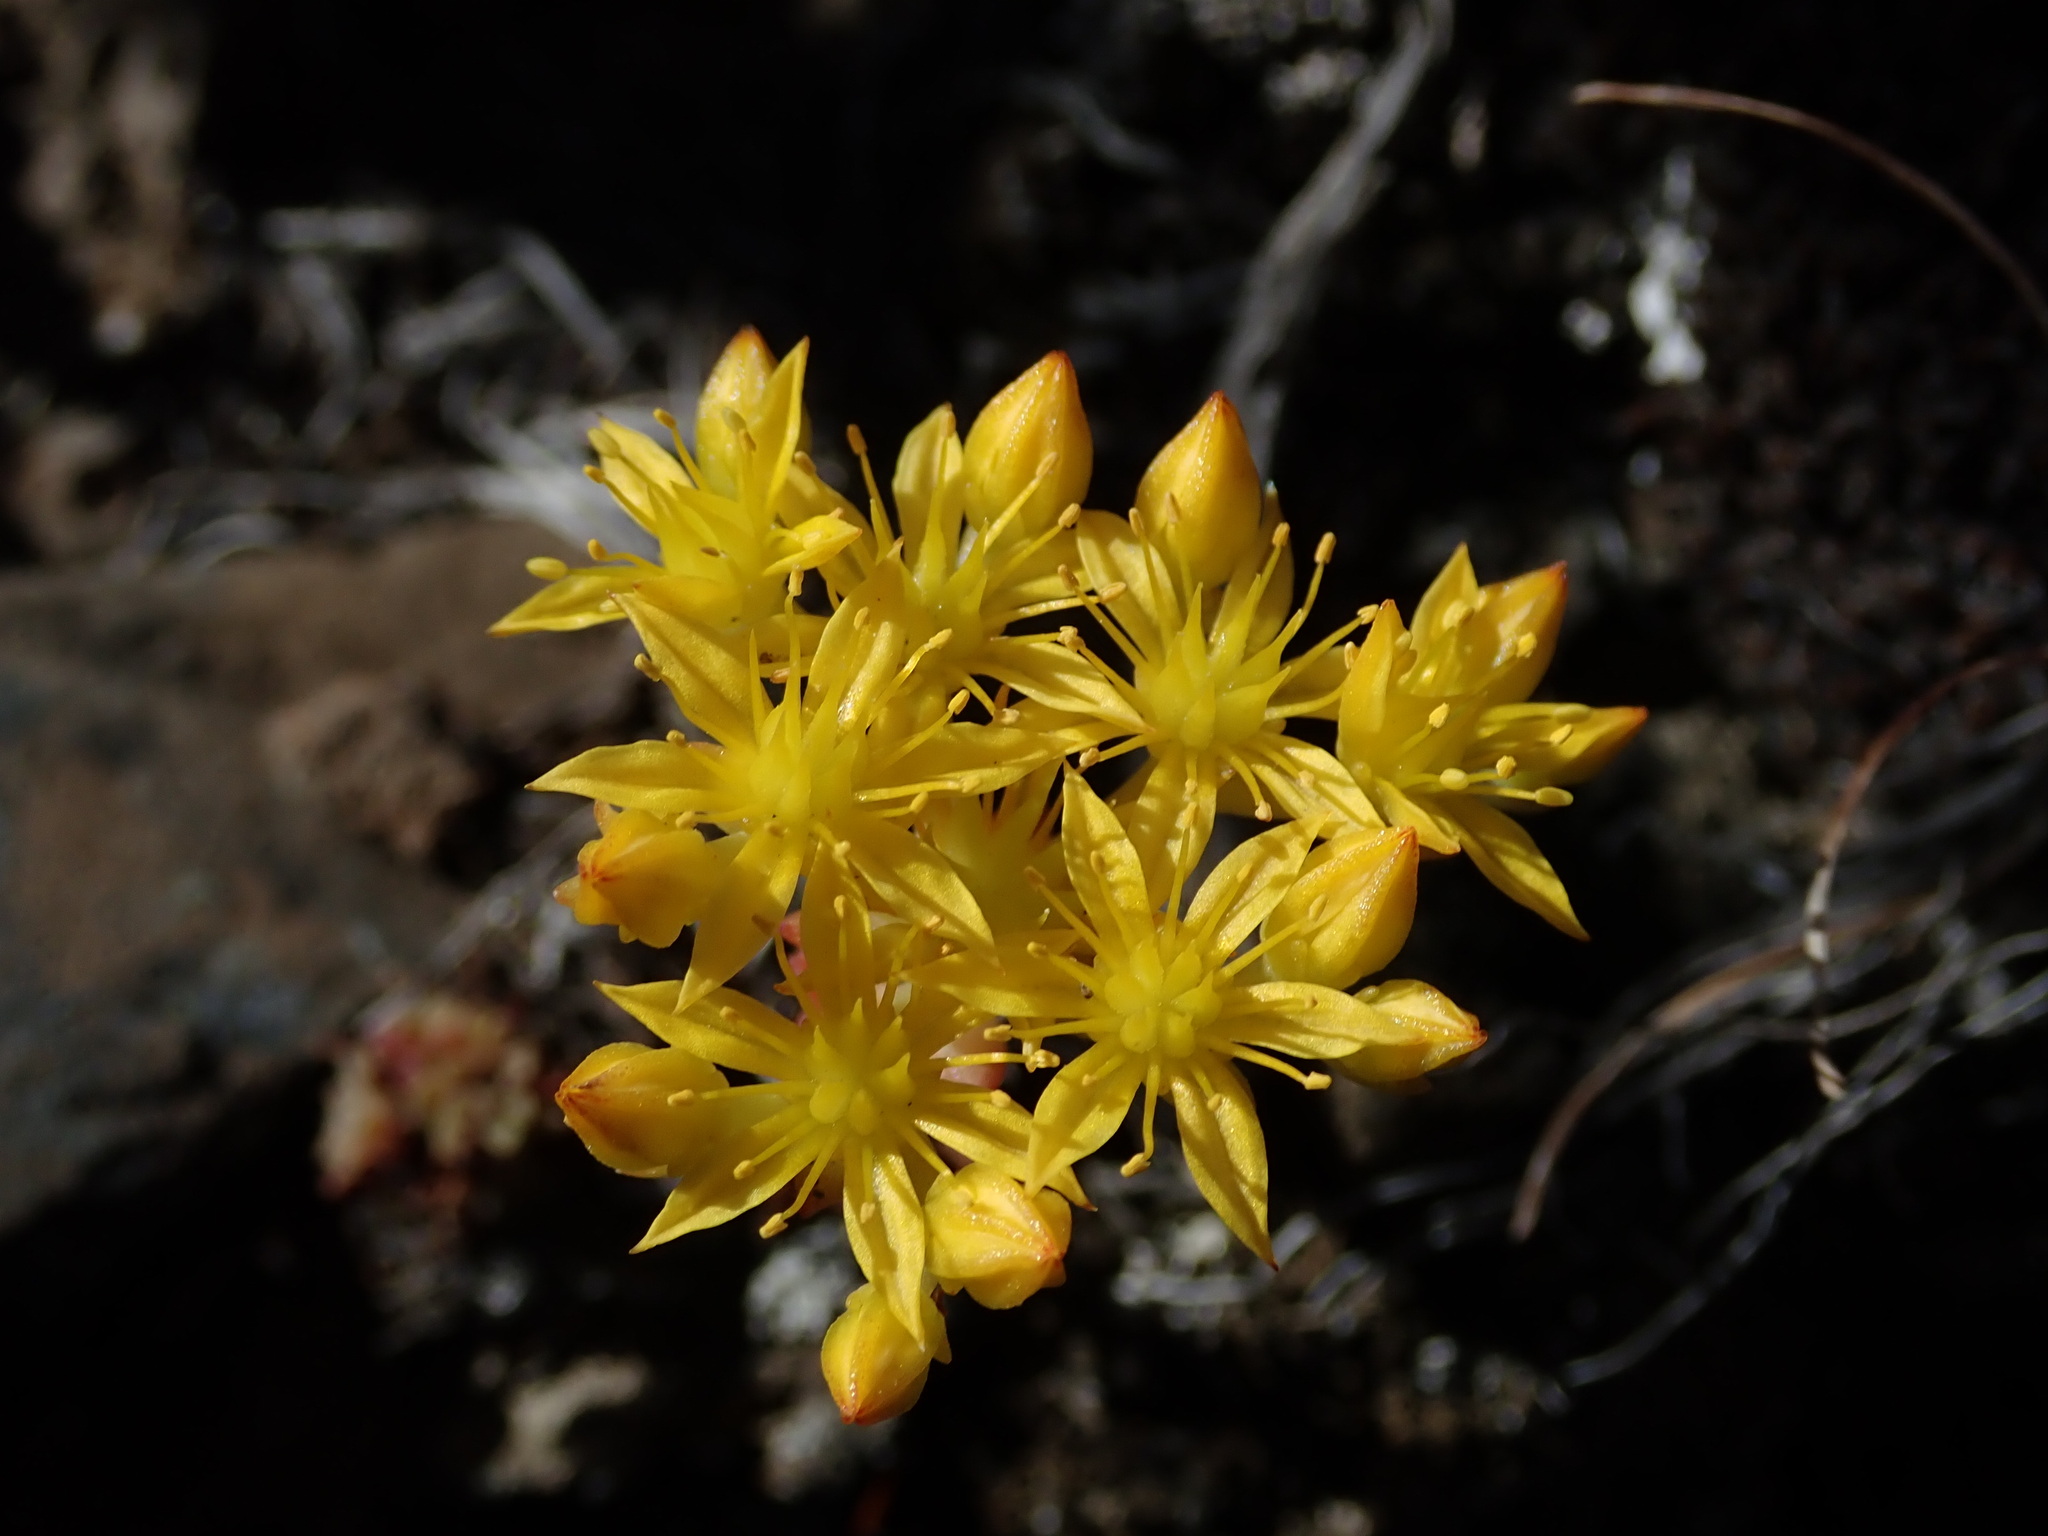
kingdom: Plantae
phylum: Tracheophyta
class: Magnoliopsida
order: Saxifragales
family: Crassulaceae
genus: Sedum
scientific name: Sedum leibergii
